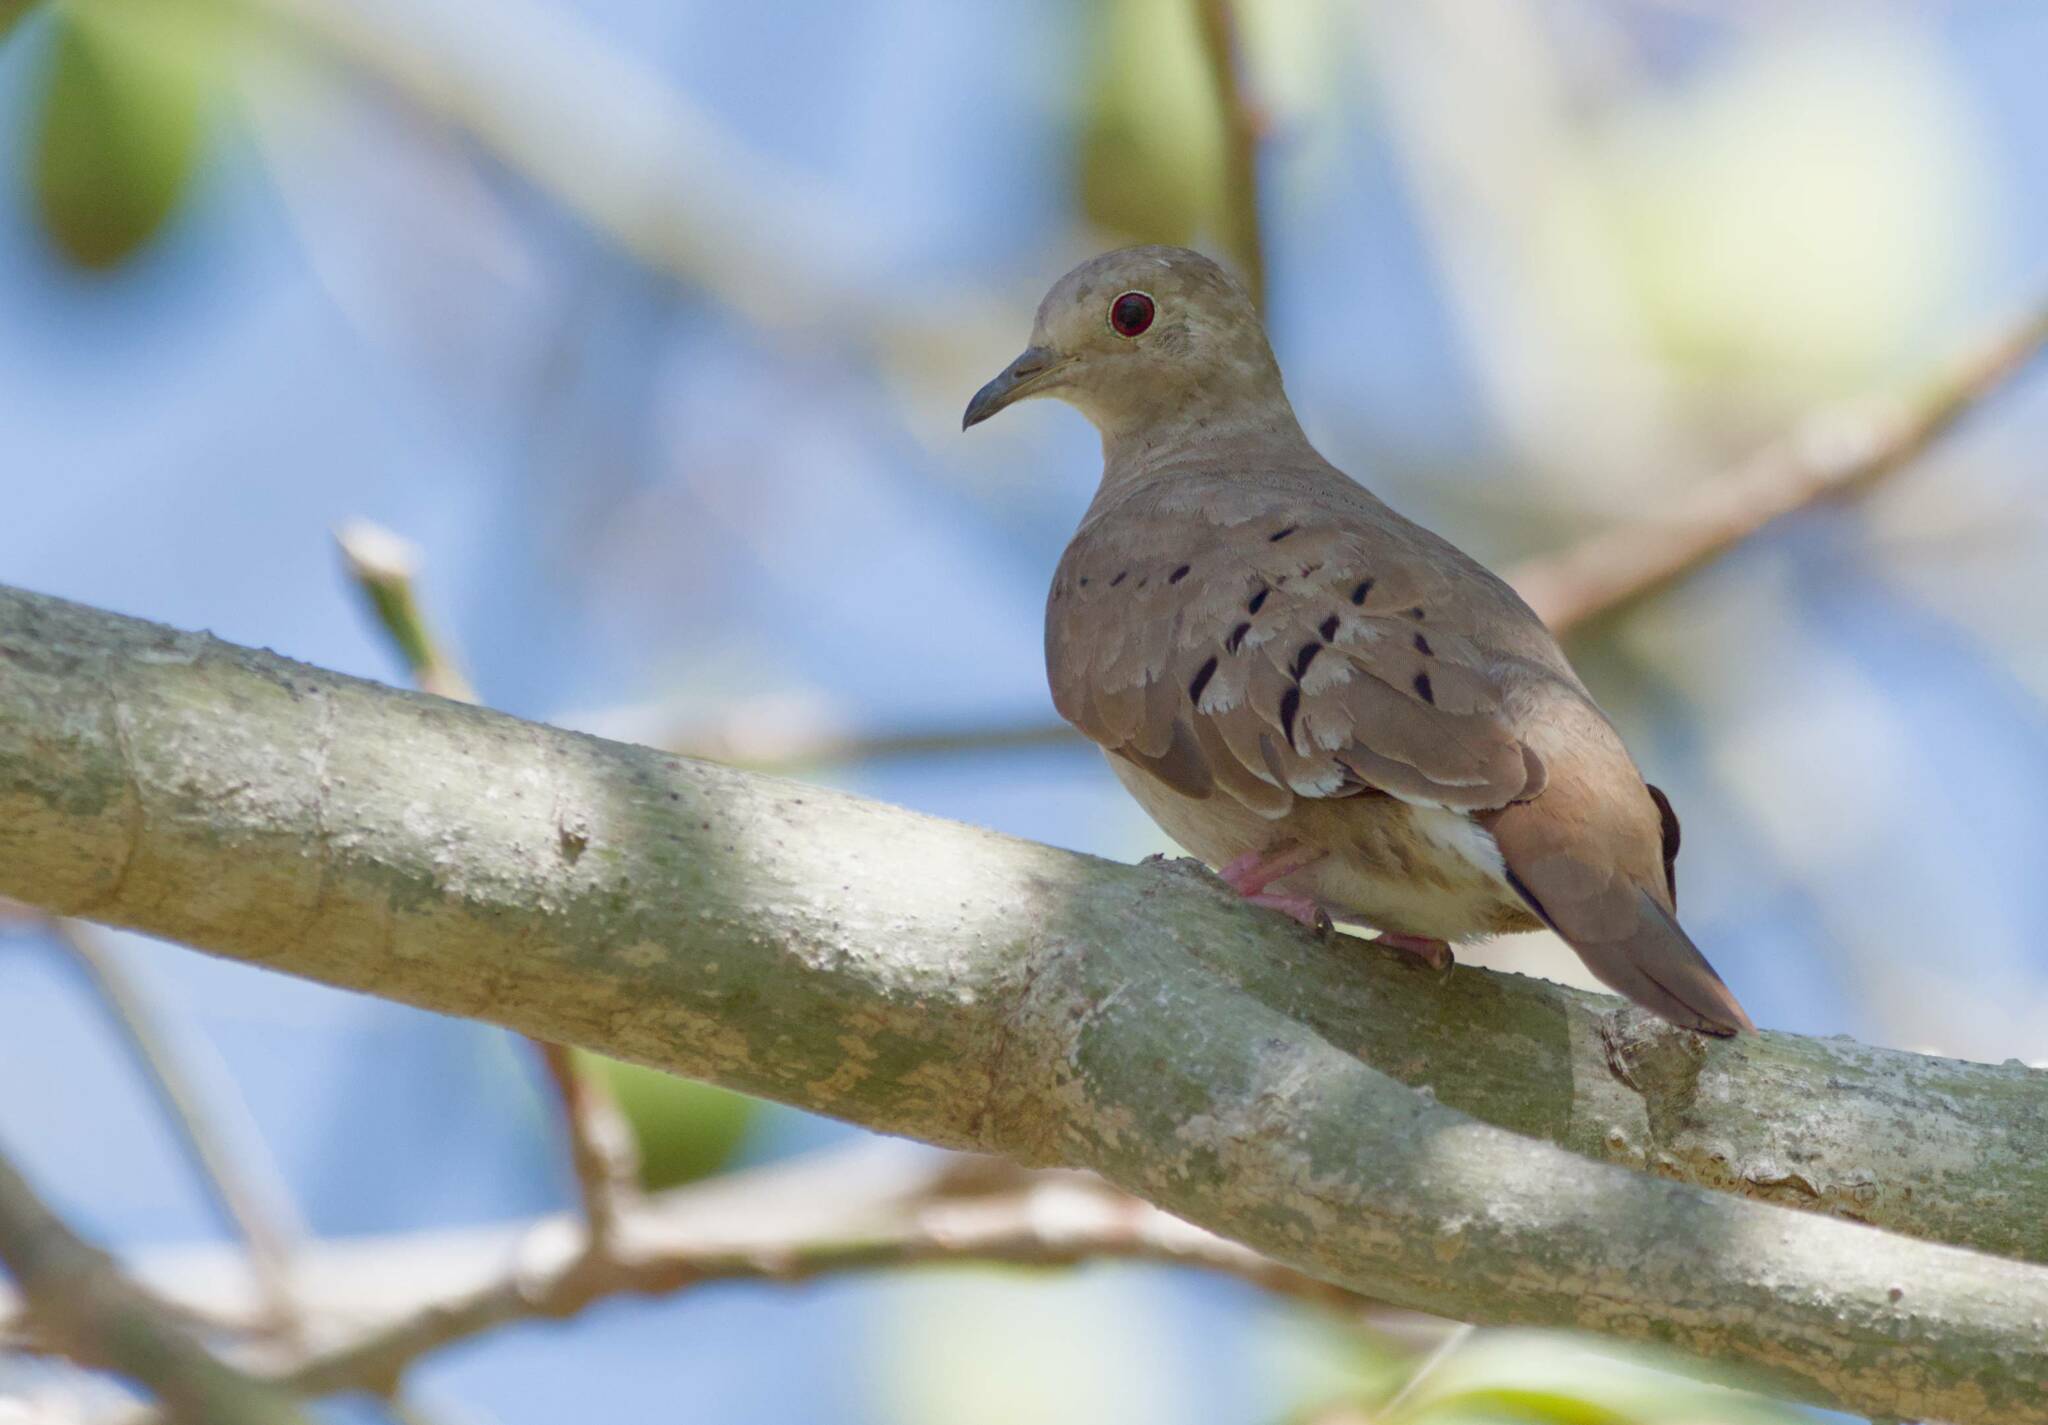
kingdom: Animalia
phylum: Chordata
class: Aves
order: Columbiformes
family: Columbidae
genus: Columbina
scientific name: Columbina talpacoti
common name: Ruddy ground dove
